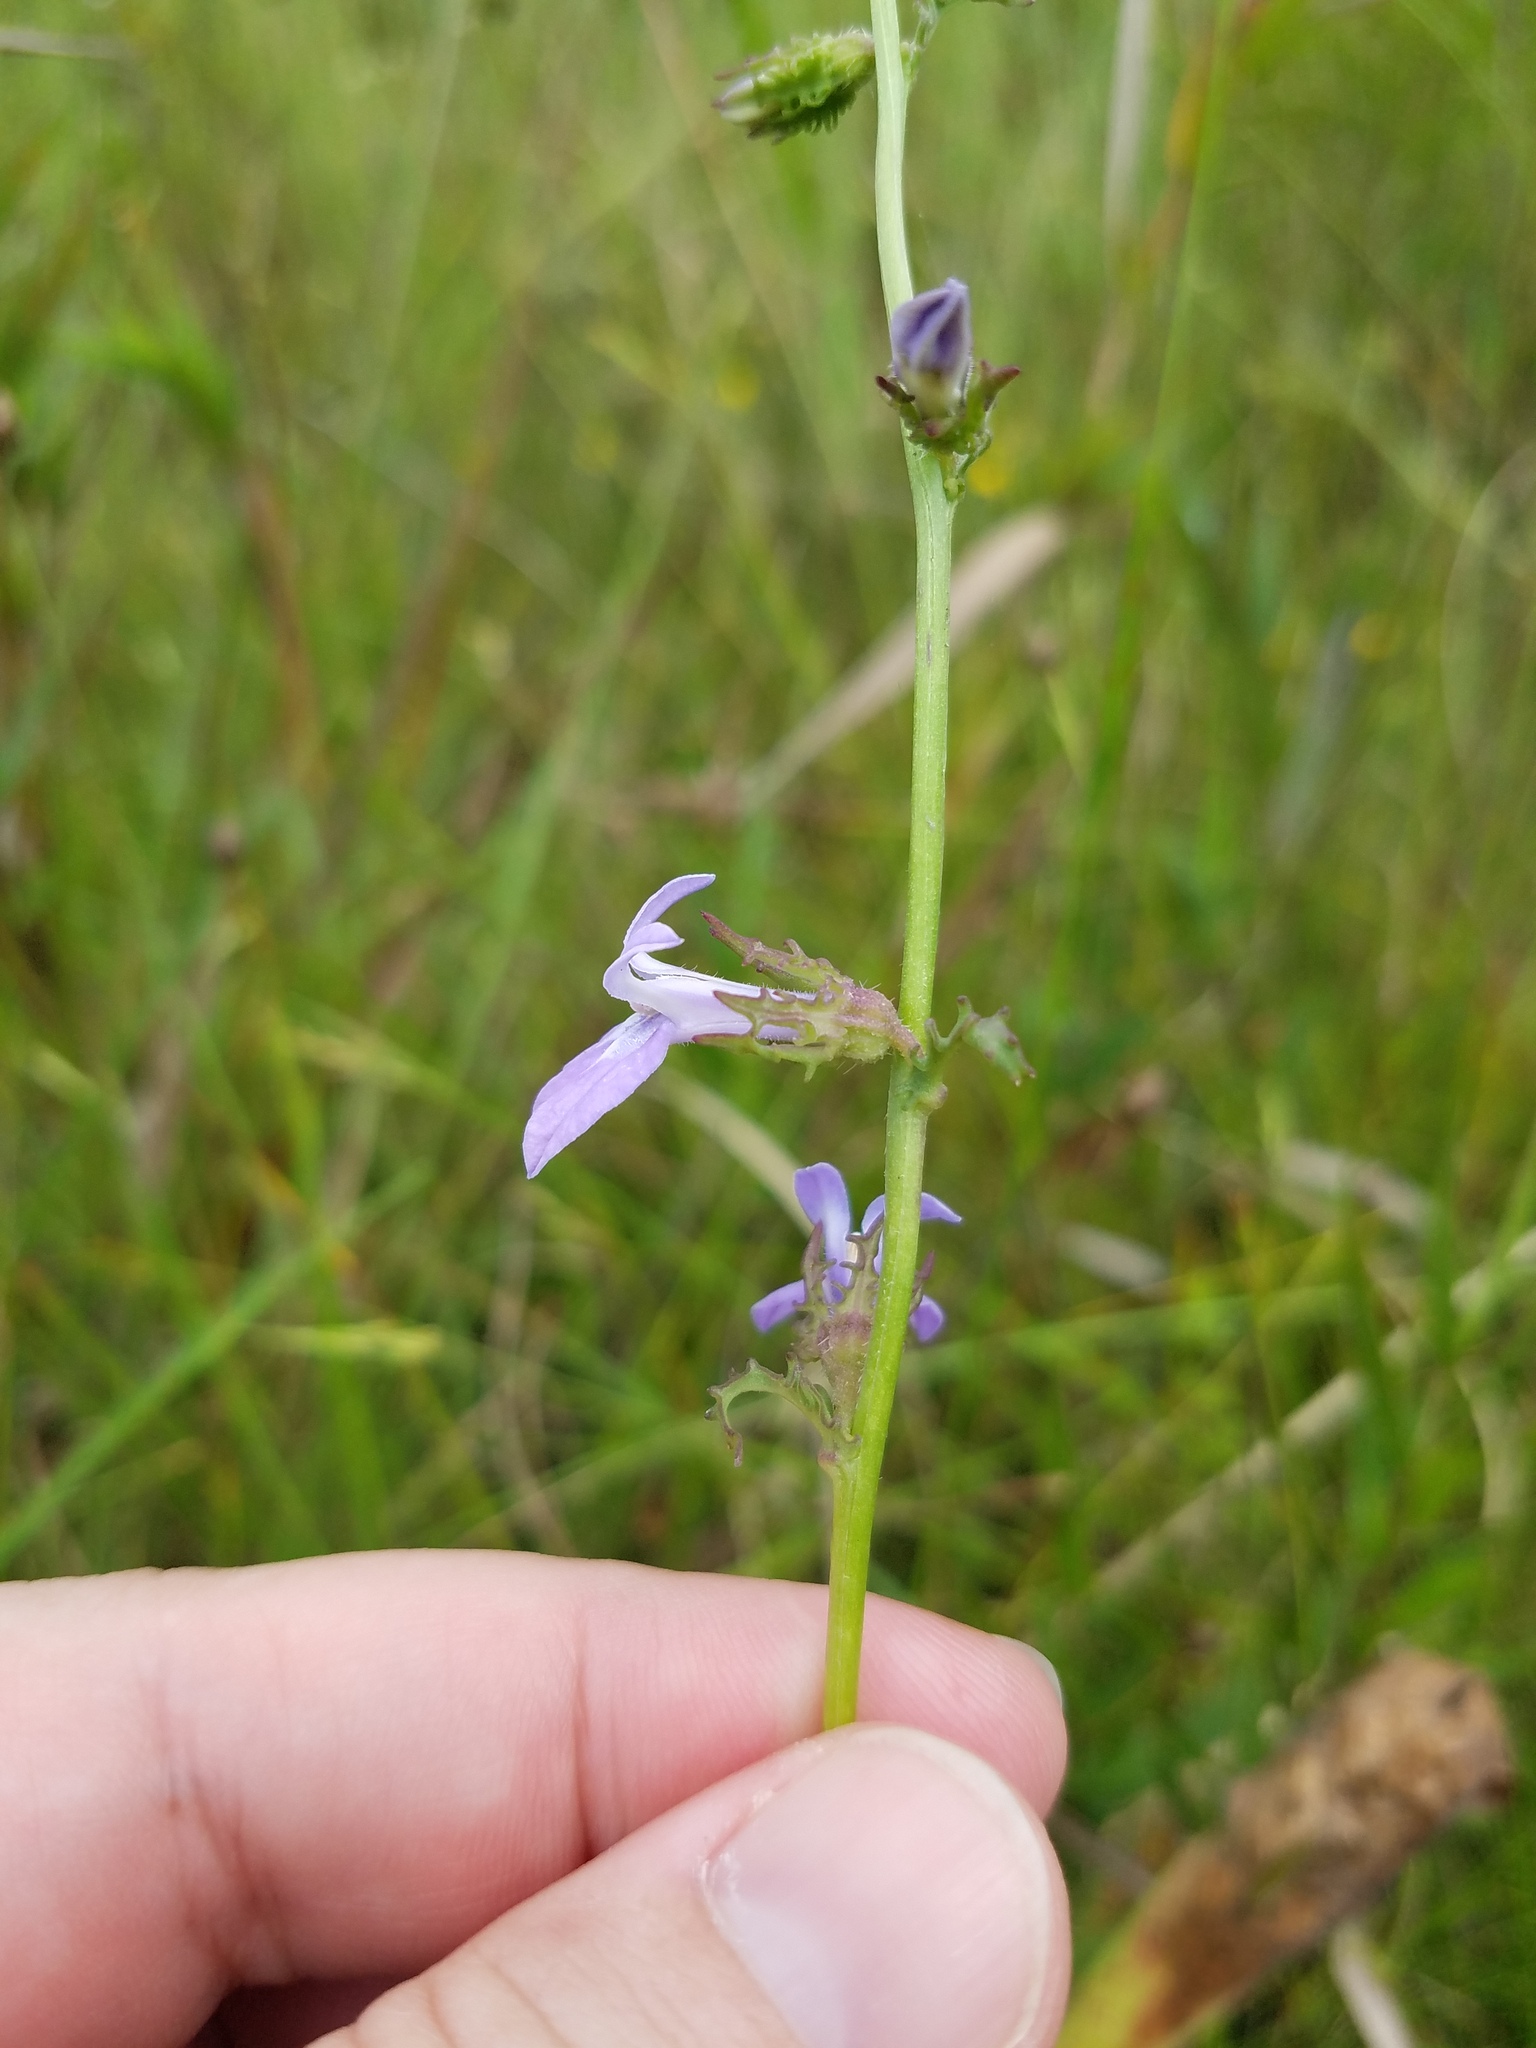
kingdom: Plantae
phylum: Tracheophyta
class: Magnoliopsida
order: Asterales
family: Campanulaceae
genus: Lobelia
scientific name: Lobelia glandulosa
